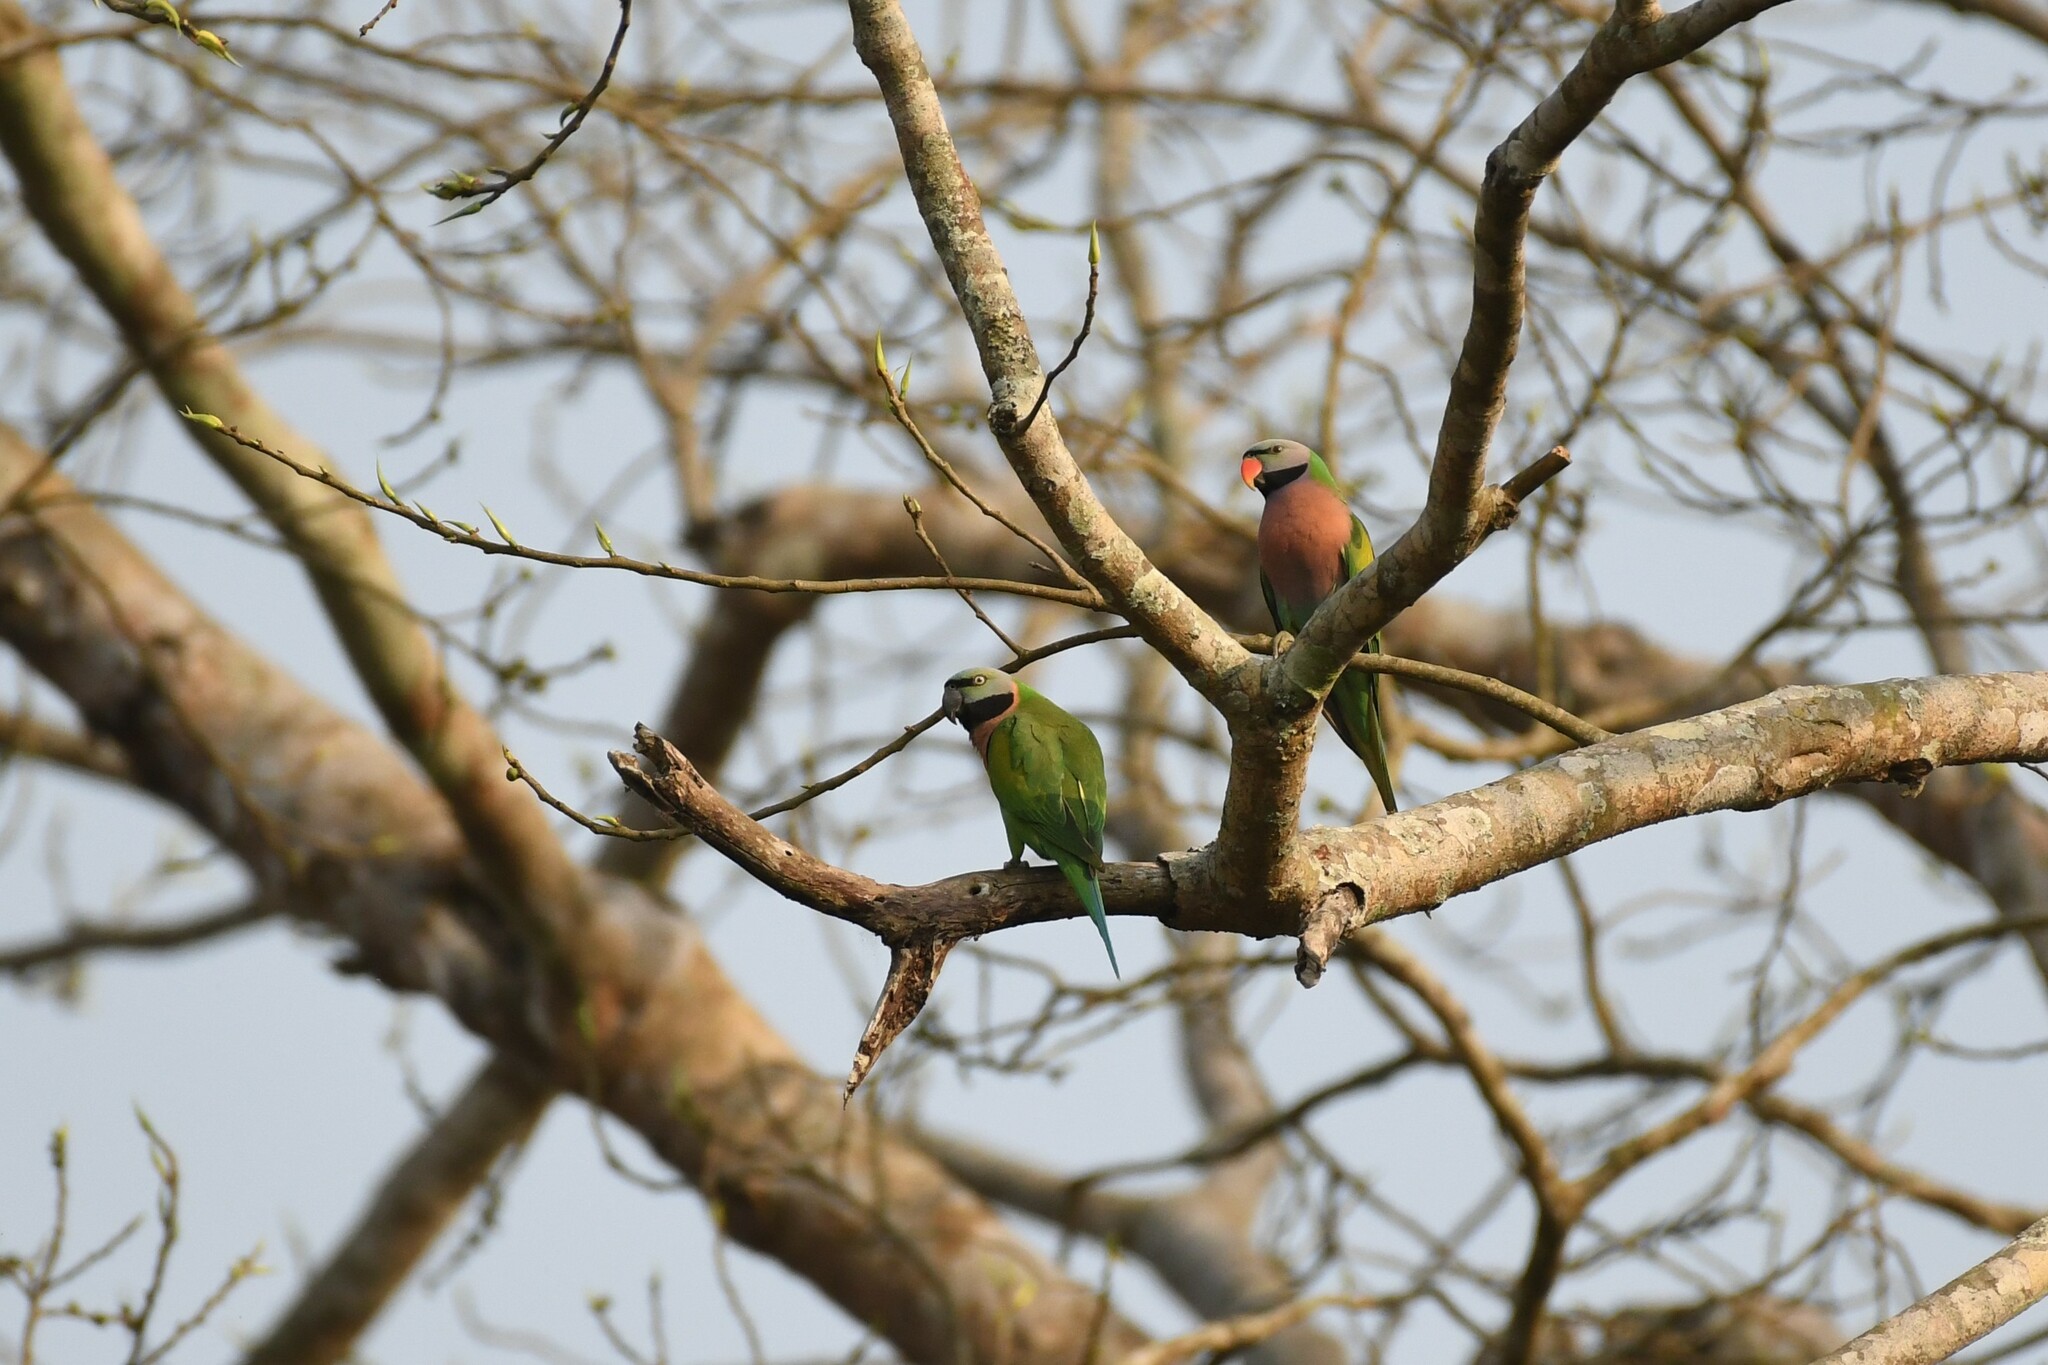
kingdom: Animalia
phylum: Chordata
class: Aves
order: Psittaciformes
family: Psittacidae
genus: Psittacula
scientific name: Psittacula alexandri
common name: Red-breasted parakeet
